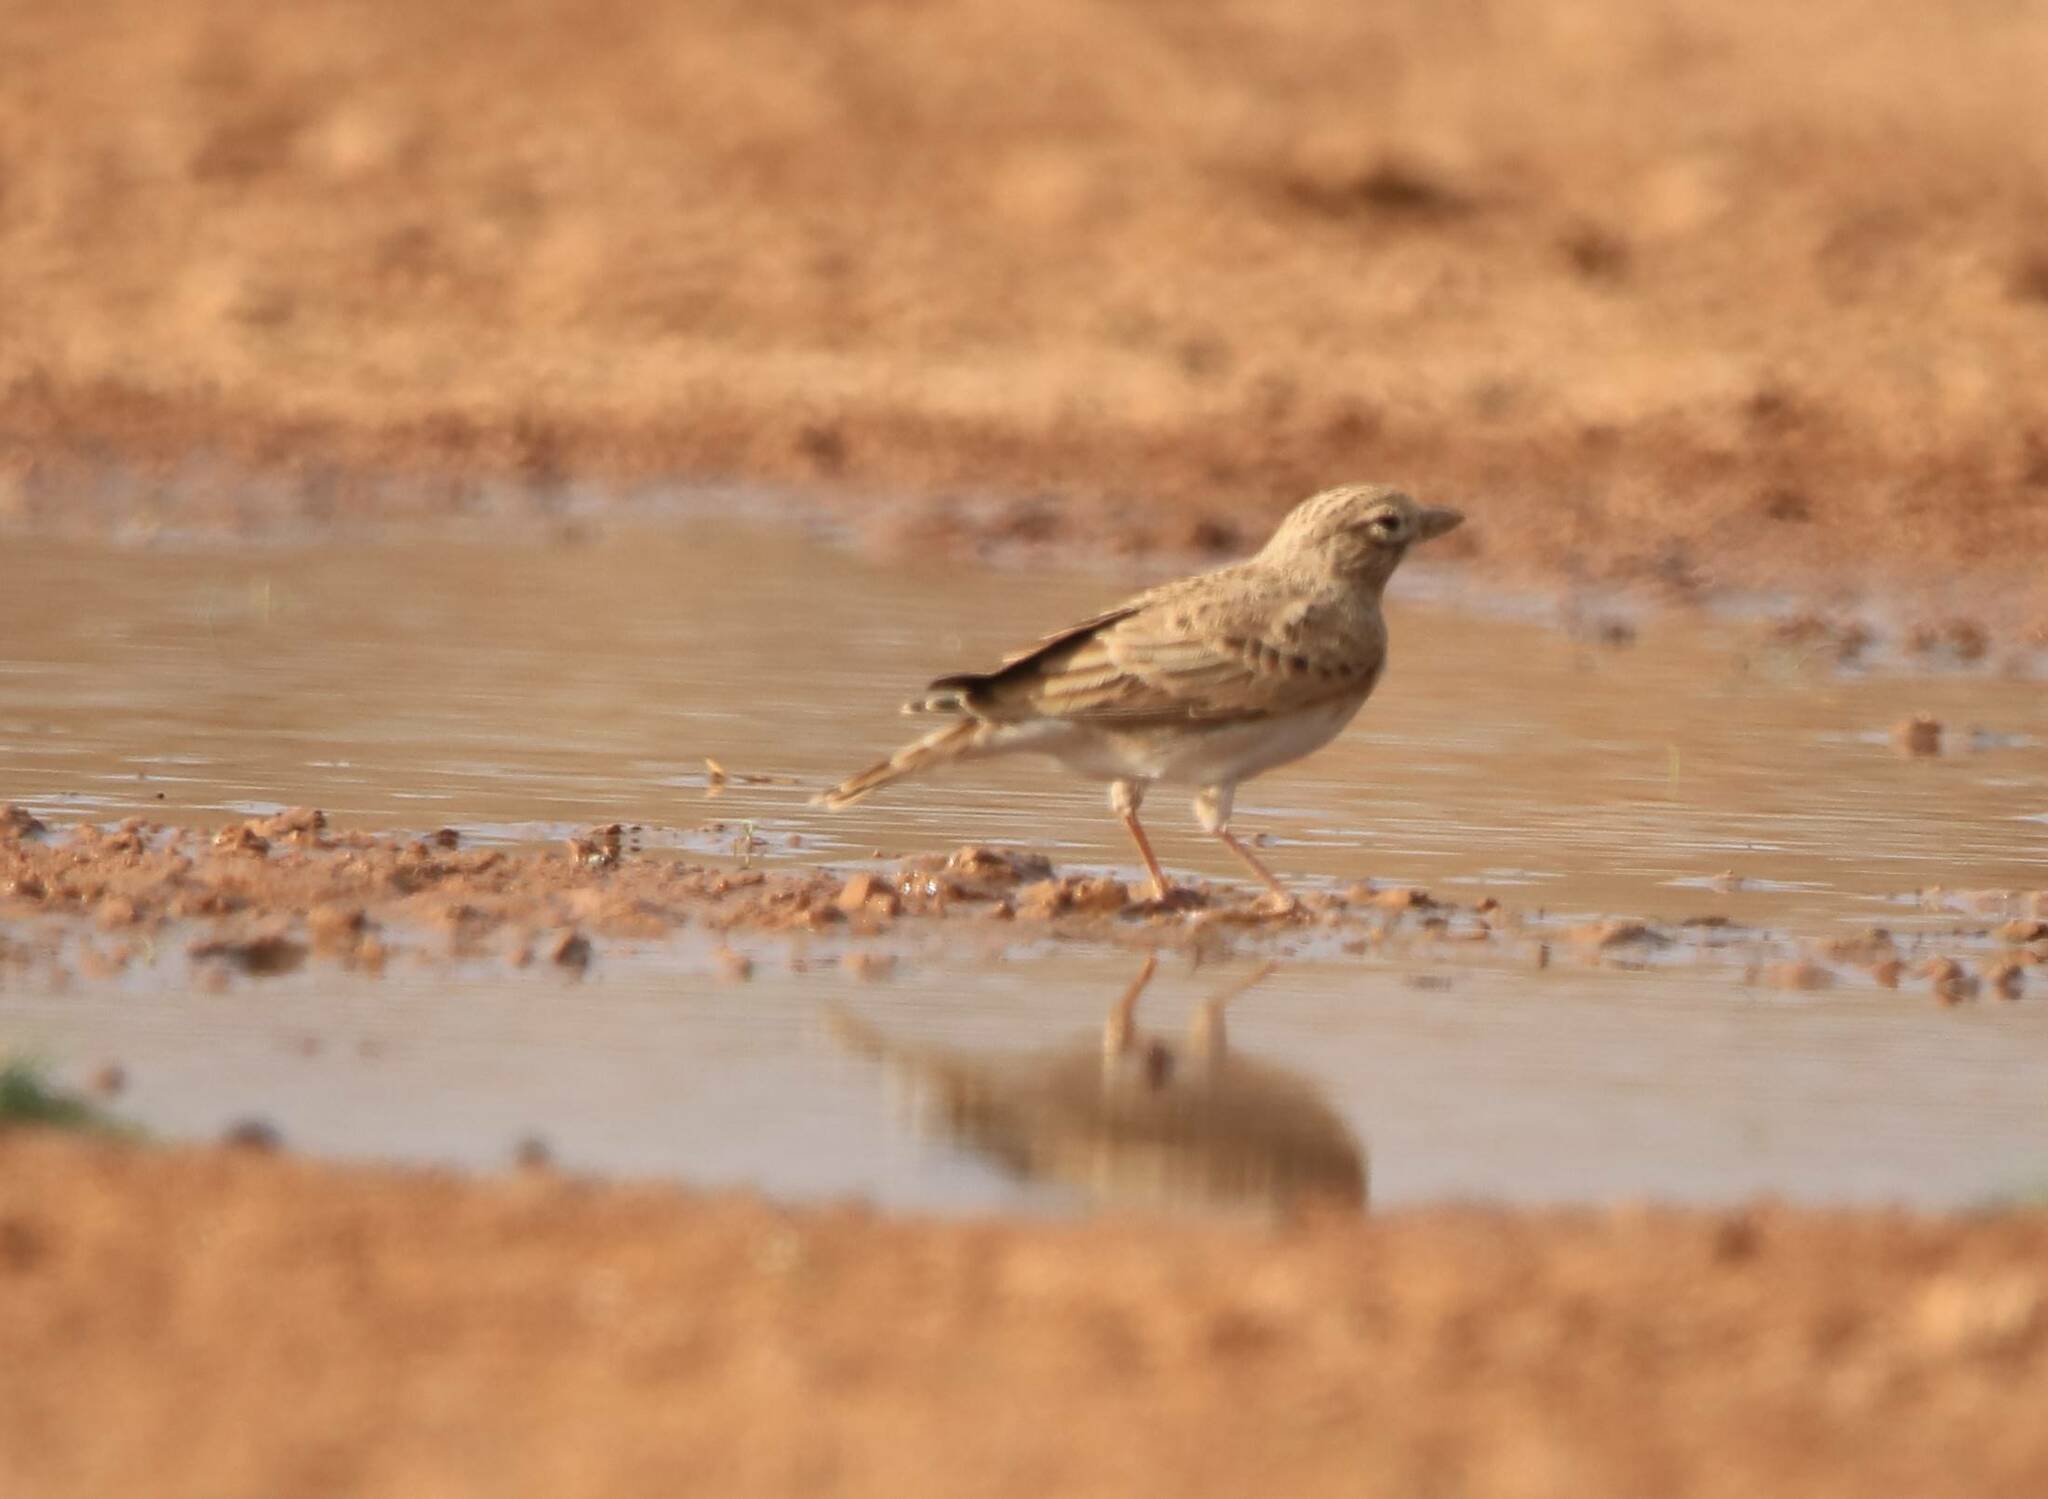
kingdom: Animalia
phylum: Chordata
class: Aves
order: Passeriformes
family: Alaudidae
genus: Calandrella
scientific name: Calandrella brachydactyla
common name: Greater short-toed lark
